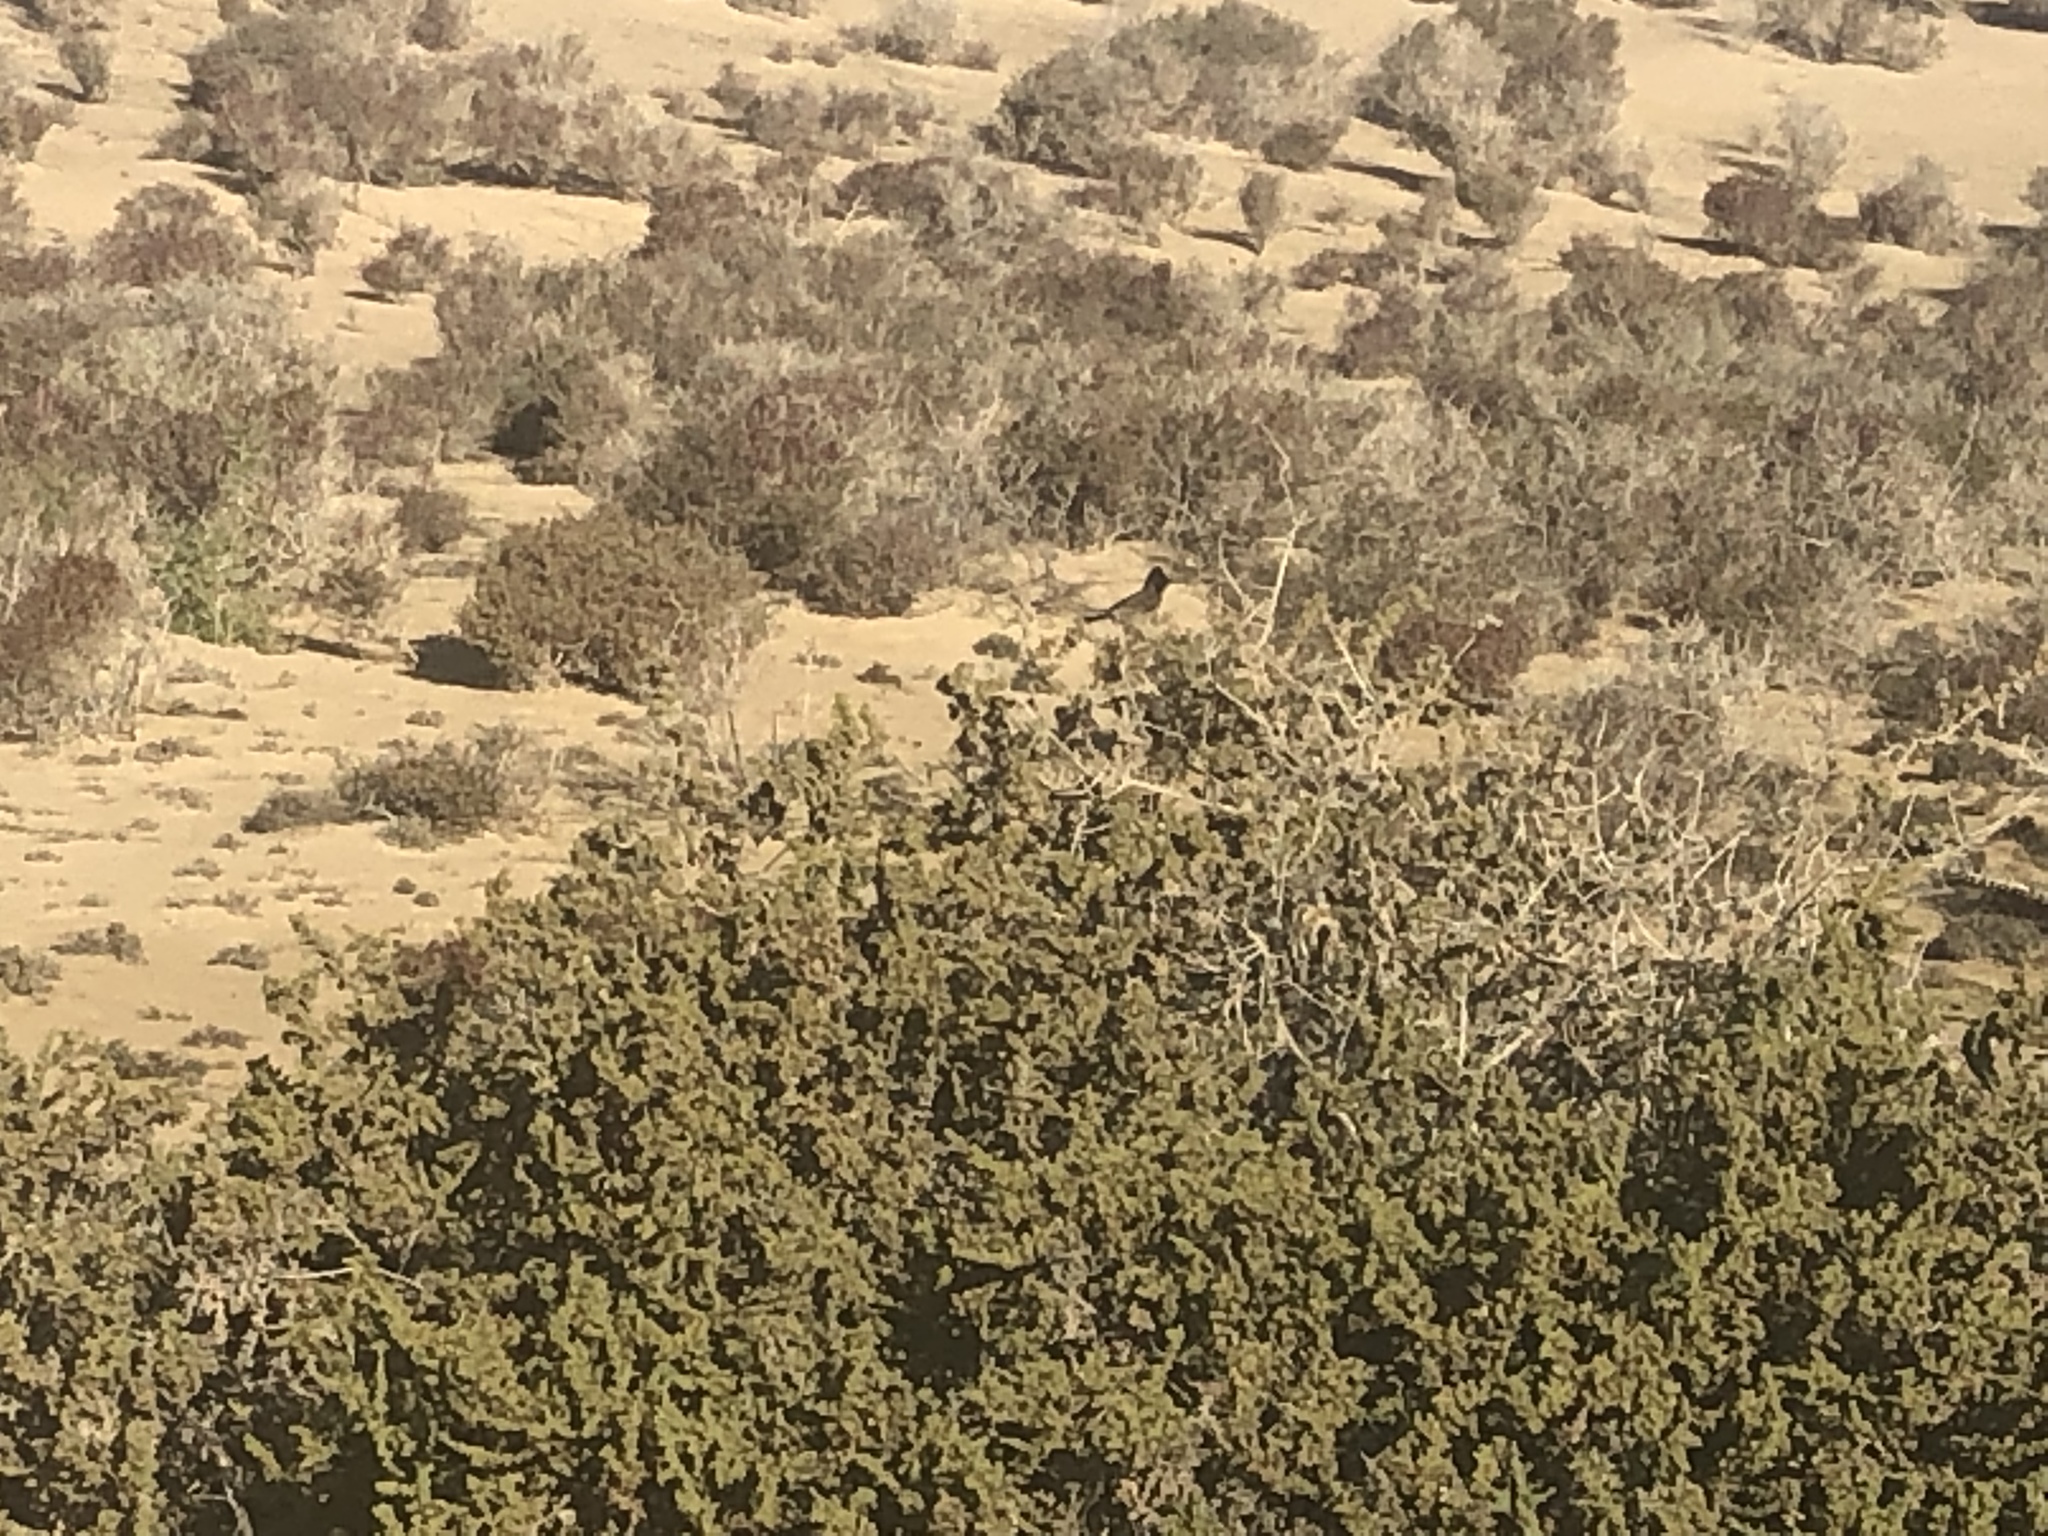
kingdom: Animalia
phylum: Chordata
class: Aves
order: Passeriformes
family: Pycnonotidae
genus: Pycnonotus
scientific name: Pycnonotus cafer
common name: Red-vented bulbul
